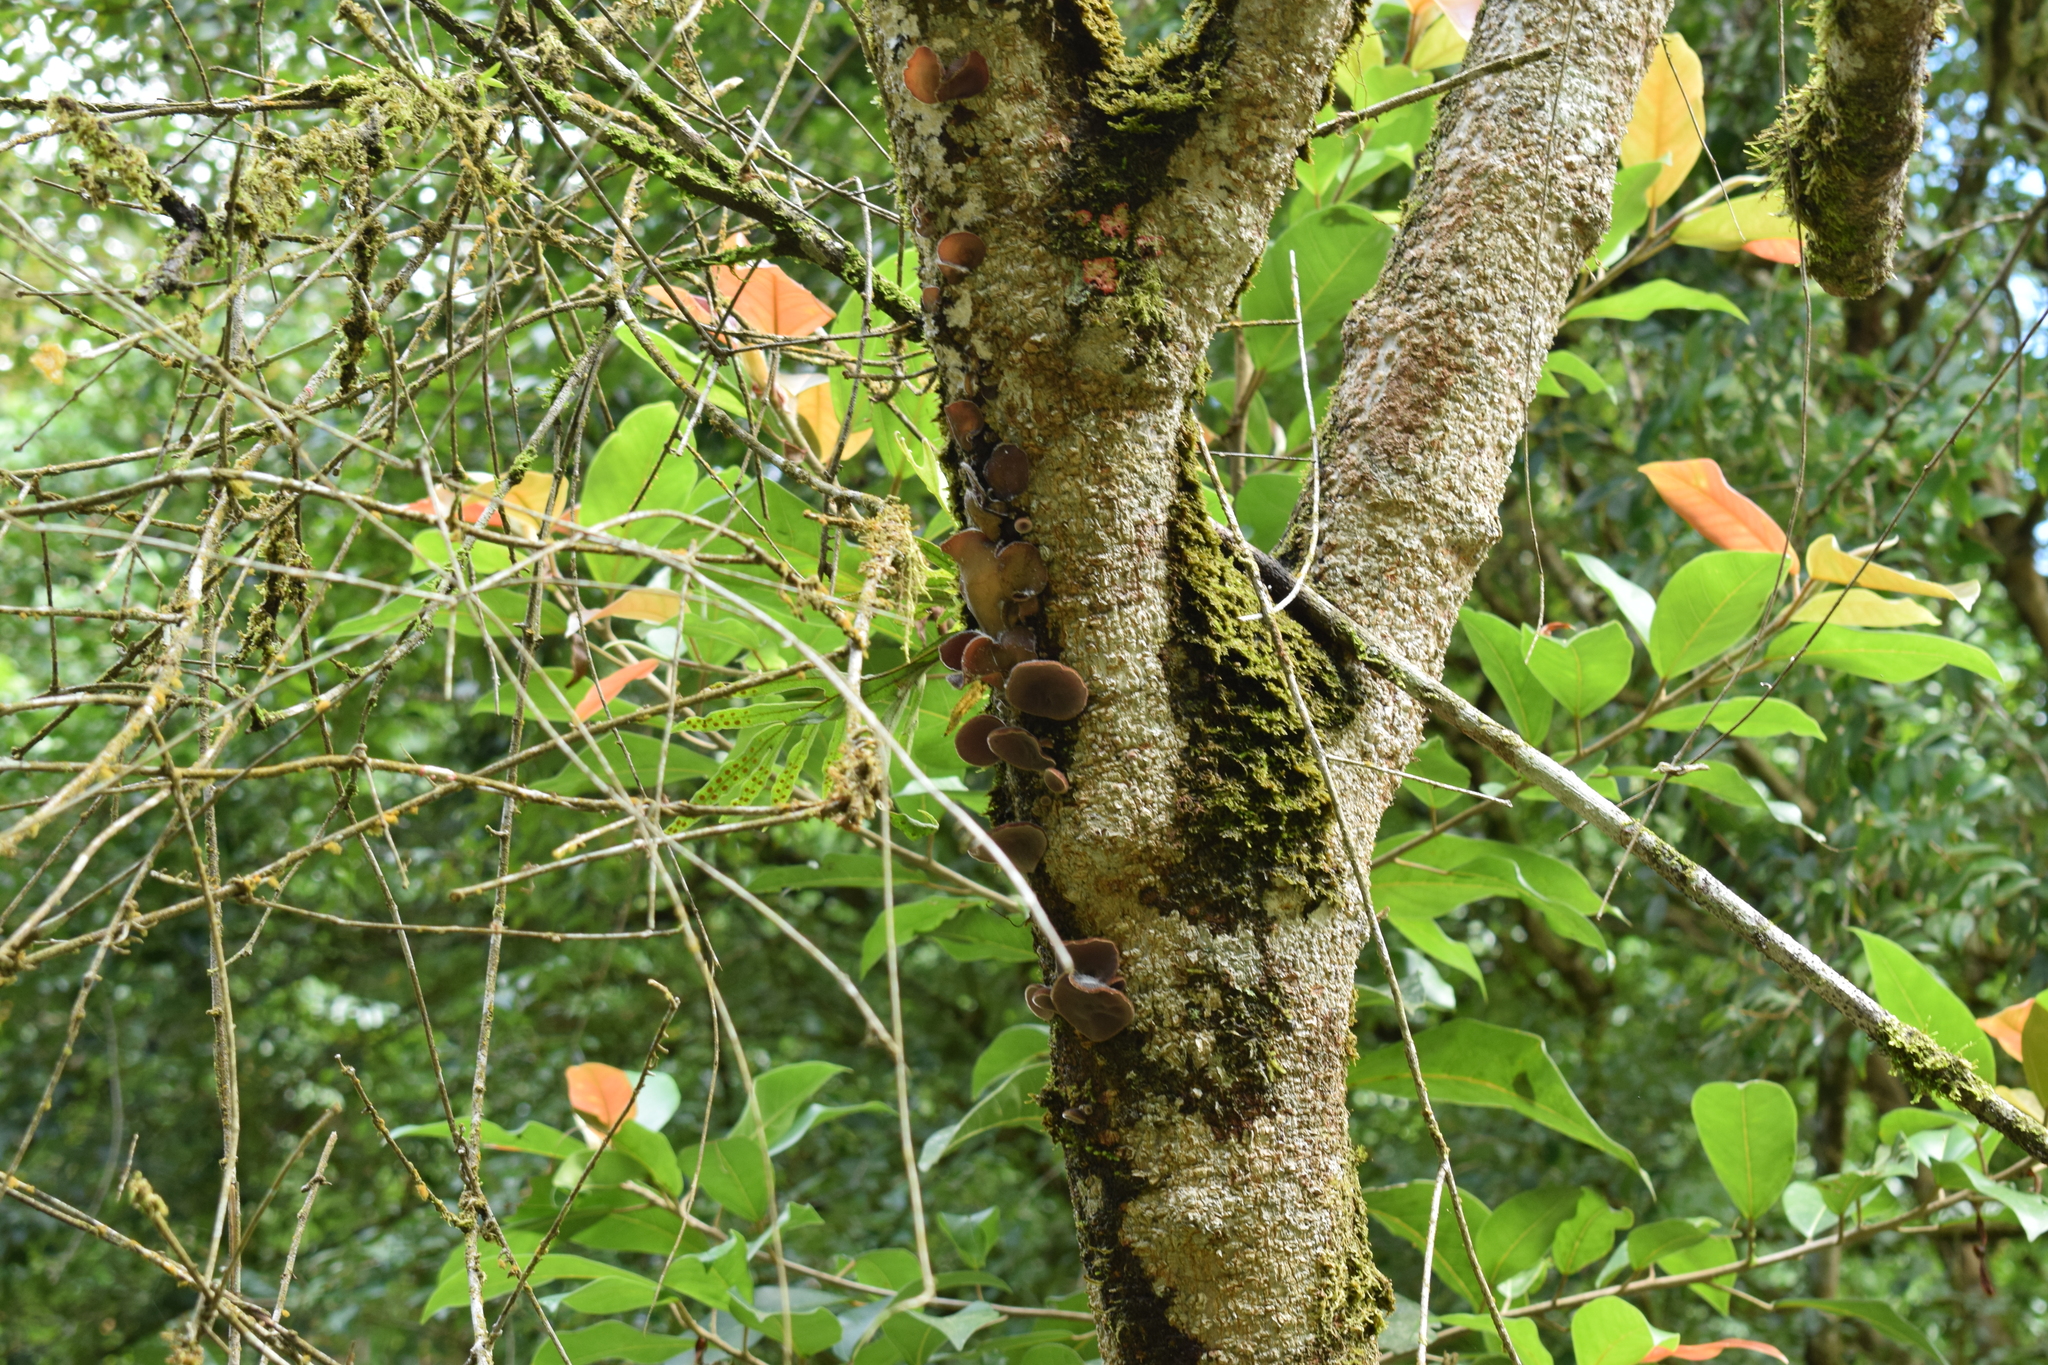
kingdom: Fungi
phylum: Basidiomycota
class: Agaricomycetes
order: Auriculariales
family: Auriculariaceae
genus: Auricularia
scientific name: Auricularia cornea
